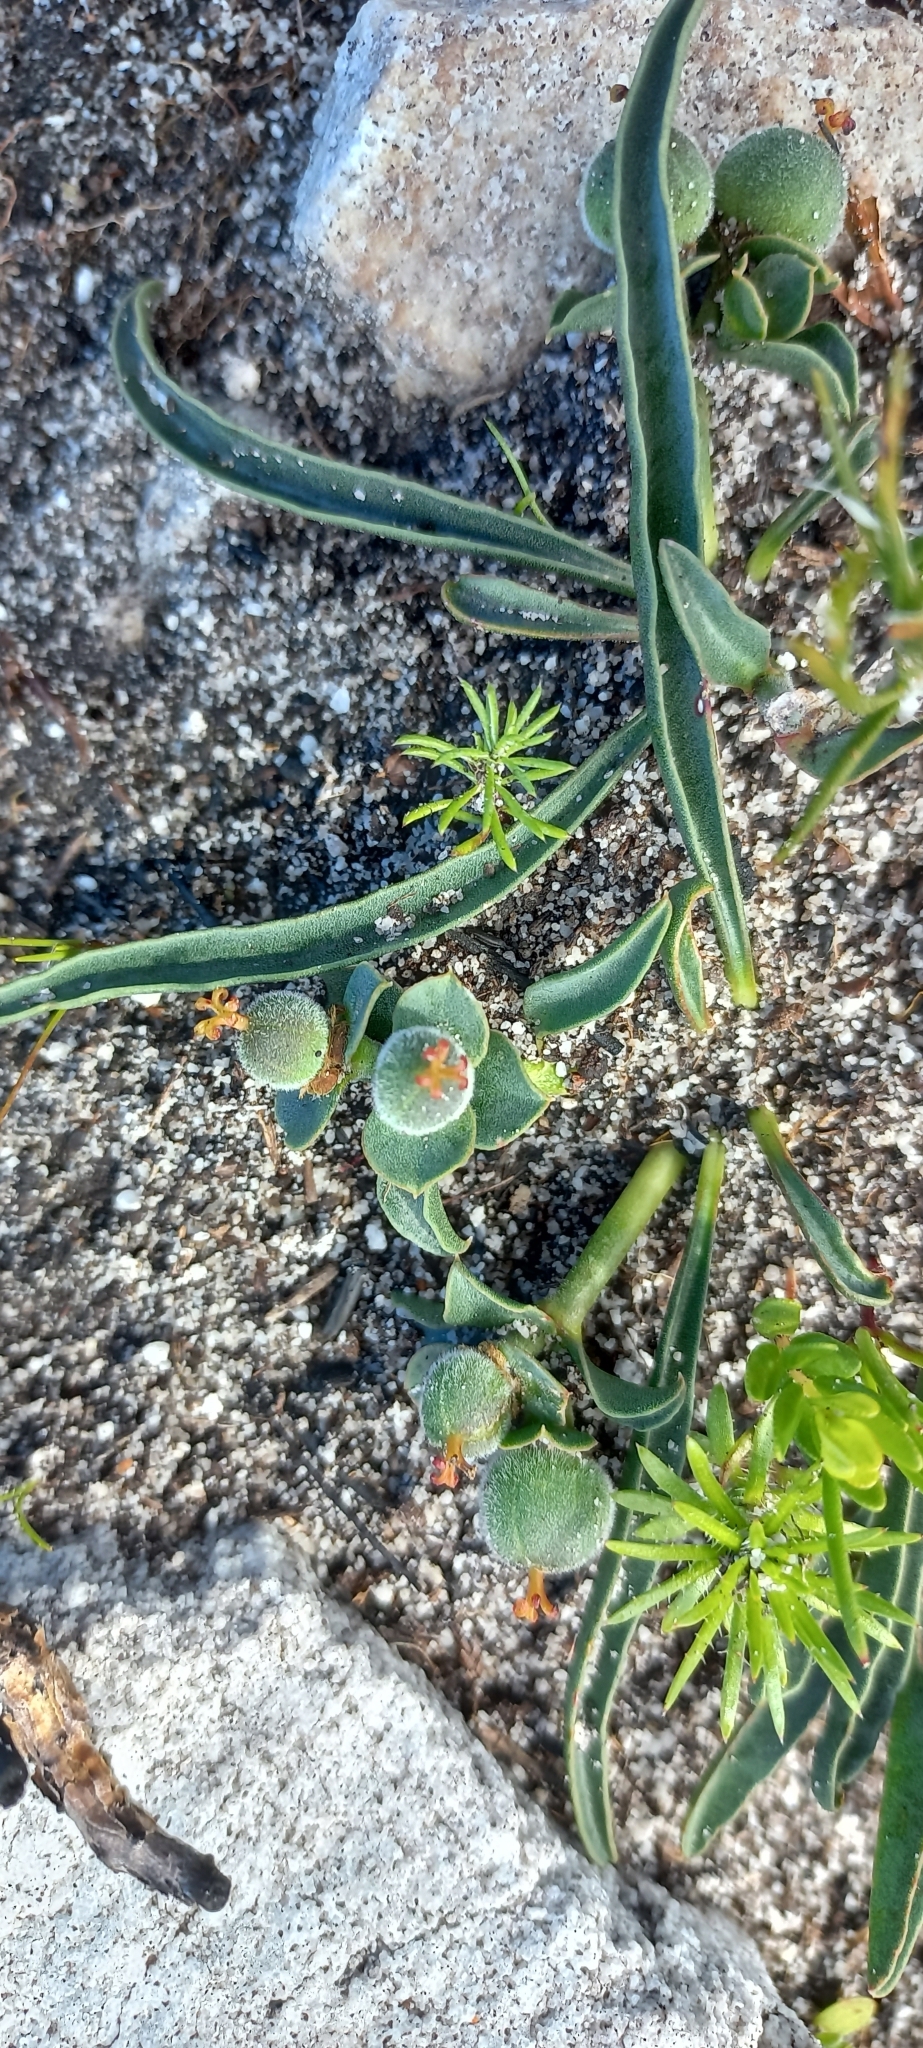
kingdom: Plantae
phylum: Tracheophyta
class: Magnoliopsida
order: Malpighiales
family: Euphorbiaceae
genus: Euphorbia
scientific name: Euphorbia silenifolia
